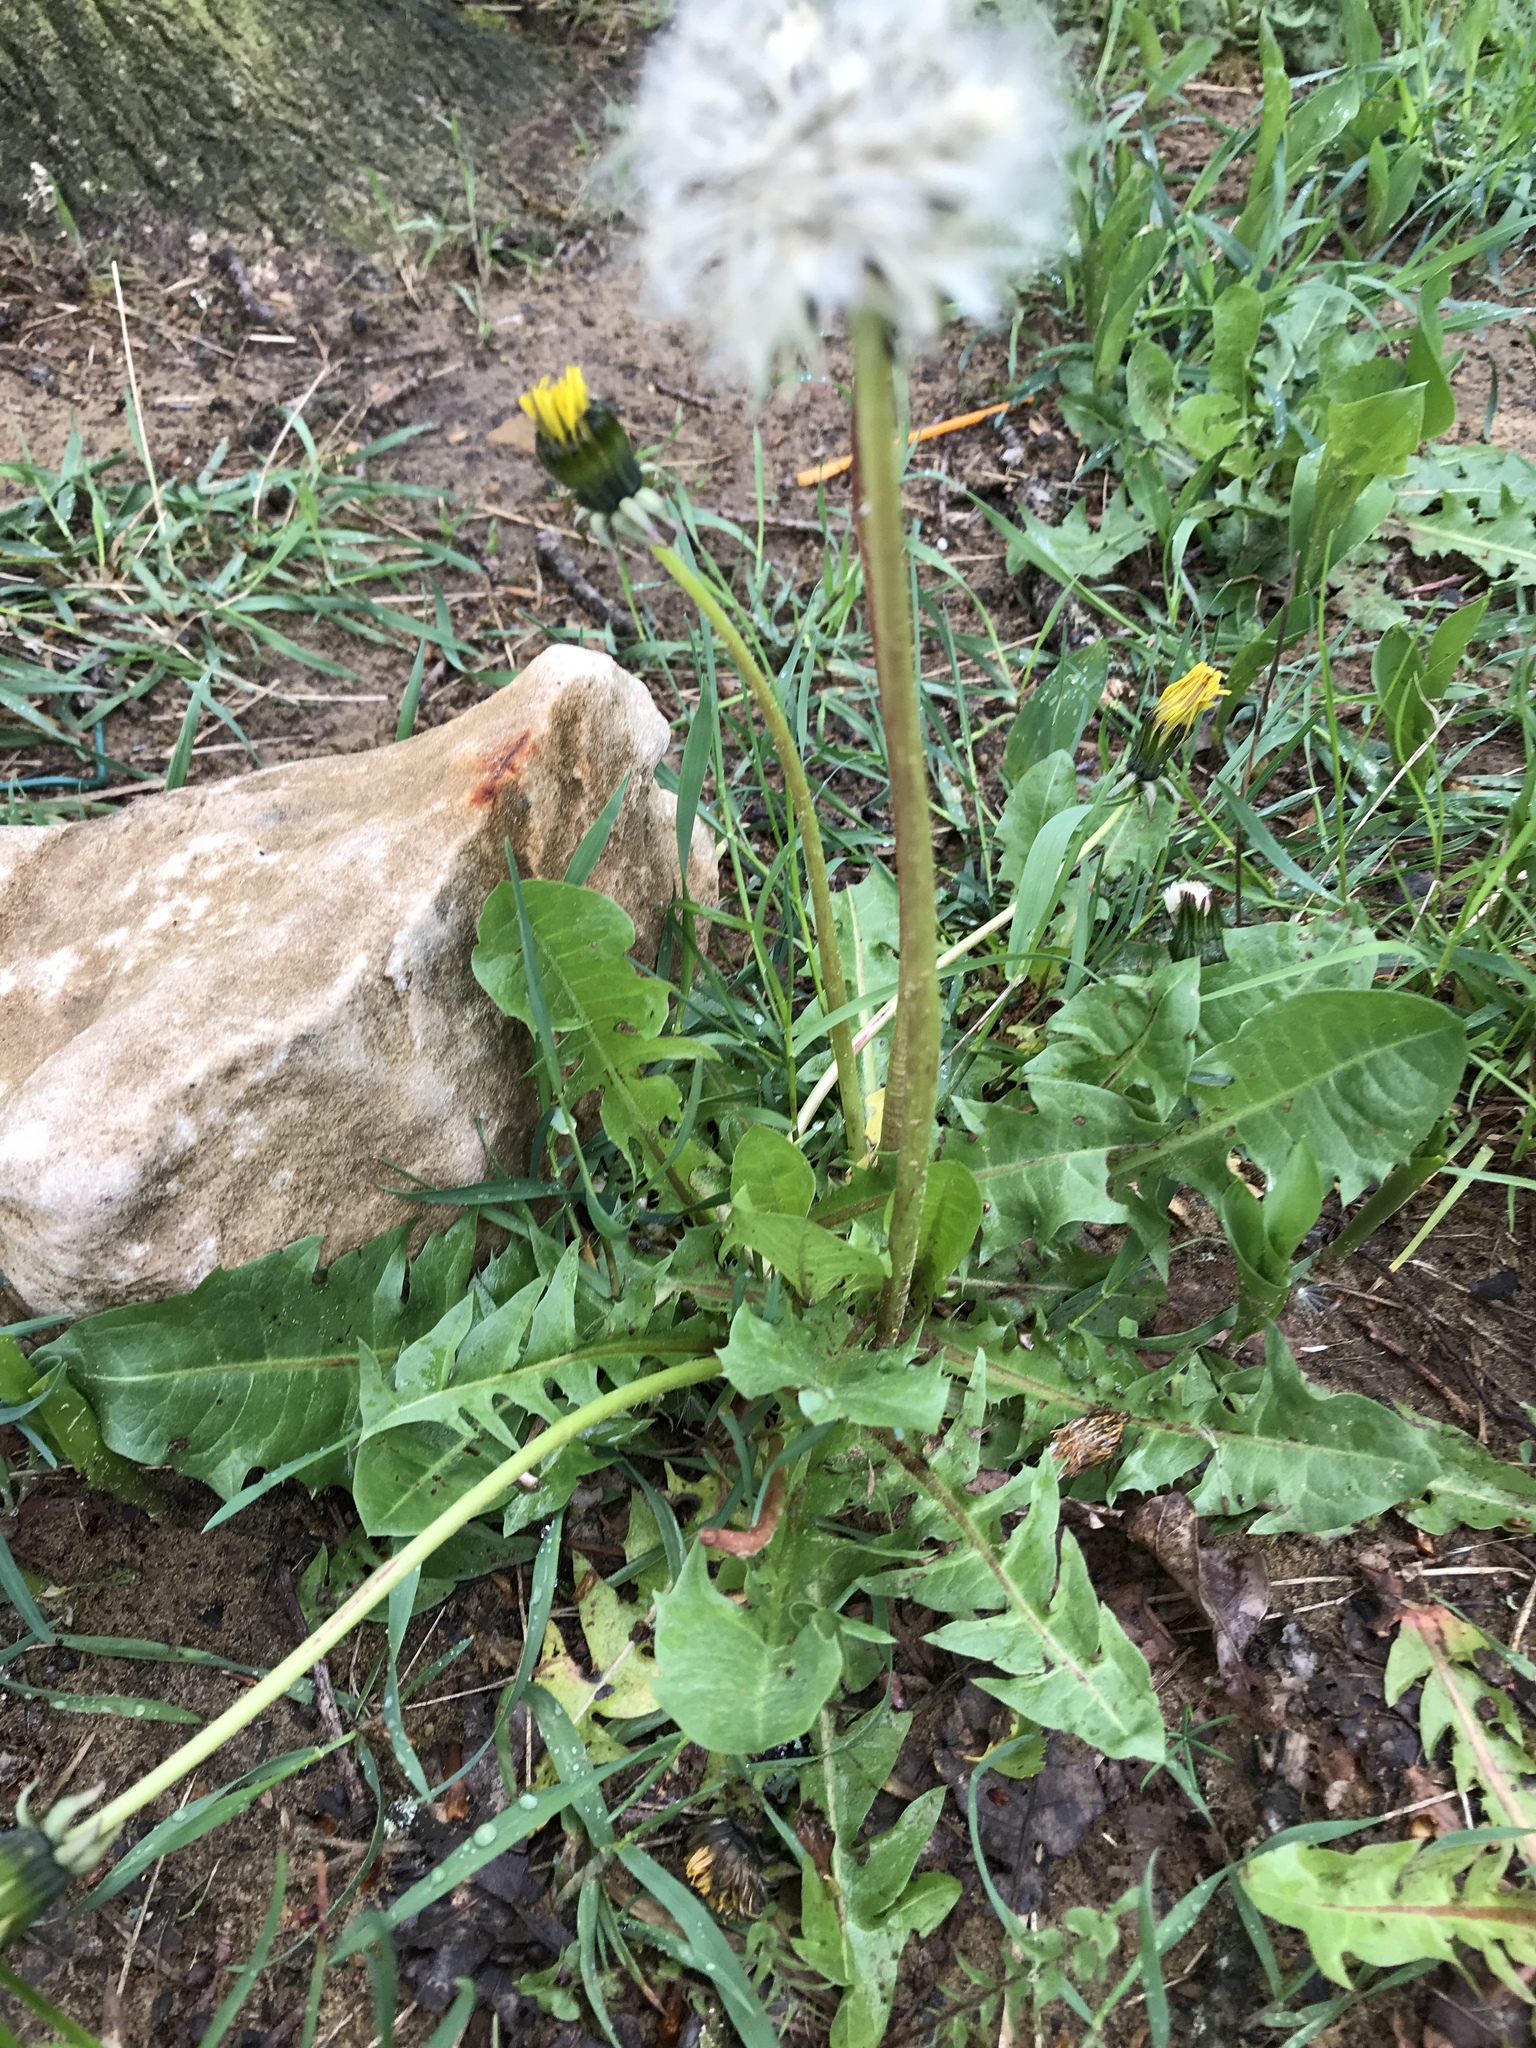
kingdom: Plantae
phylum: Tracheophyta
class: Magnoliopsida
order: Asterales
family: Asteraceae
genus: Taraxacum
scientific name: Taraxacum officinale
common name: Common dandelion
